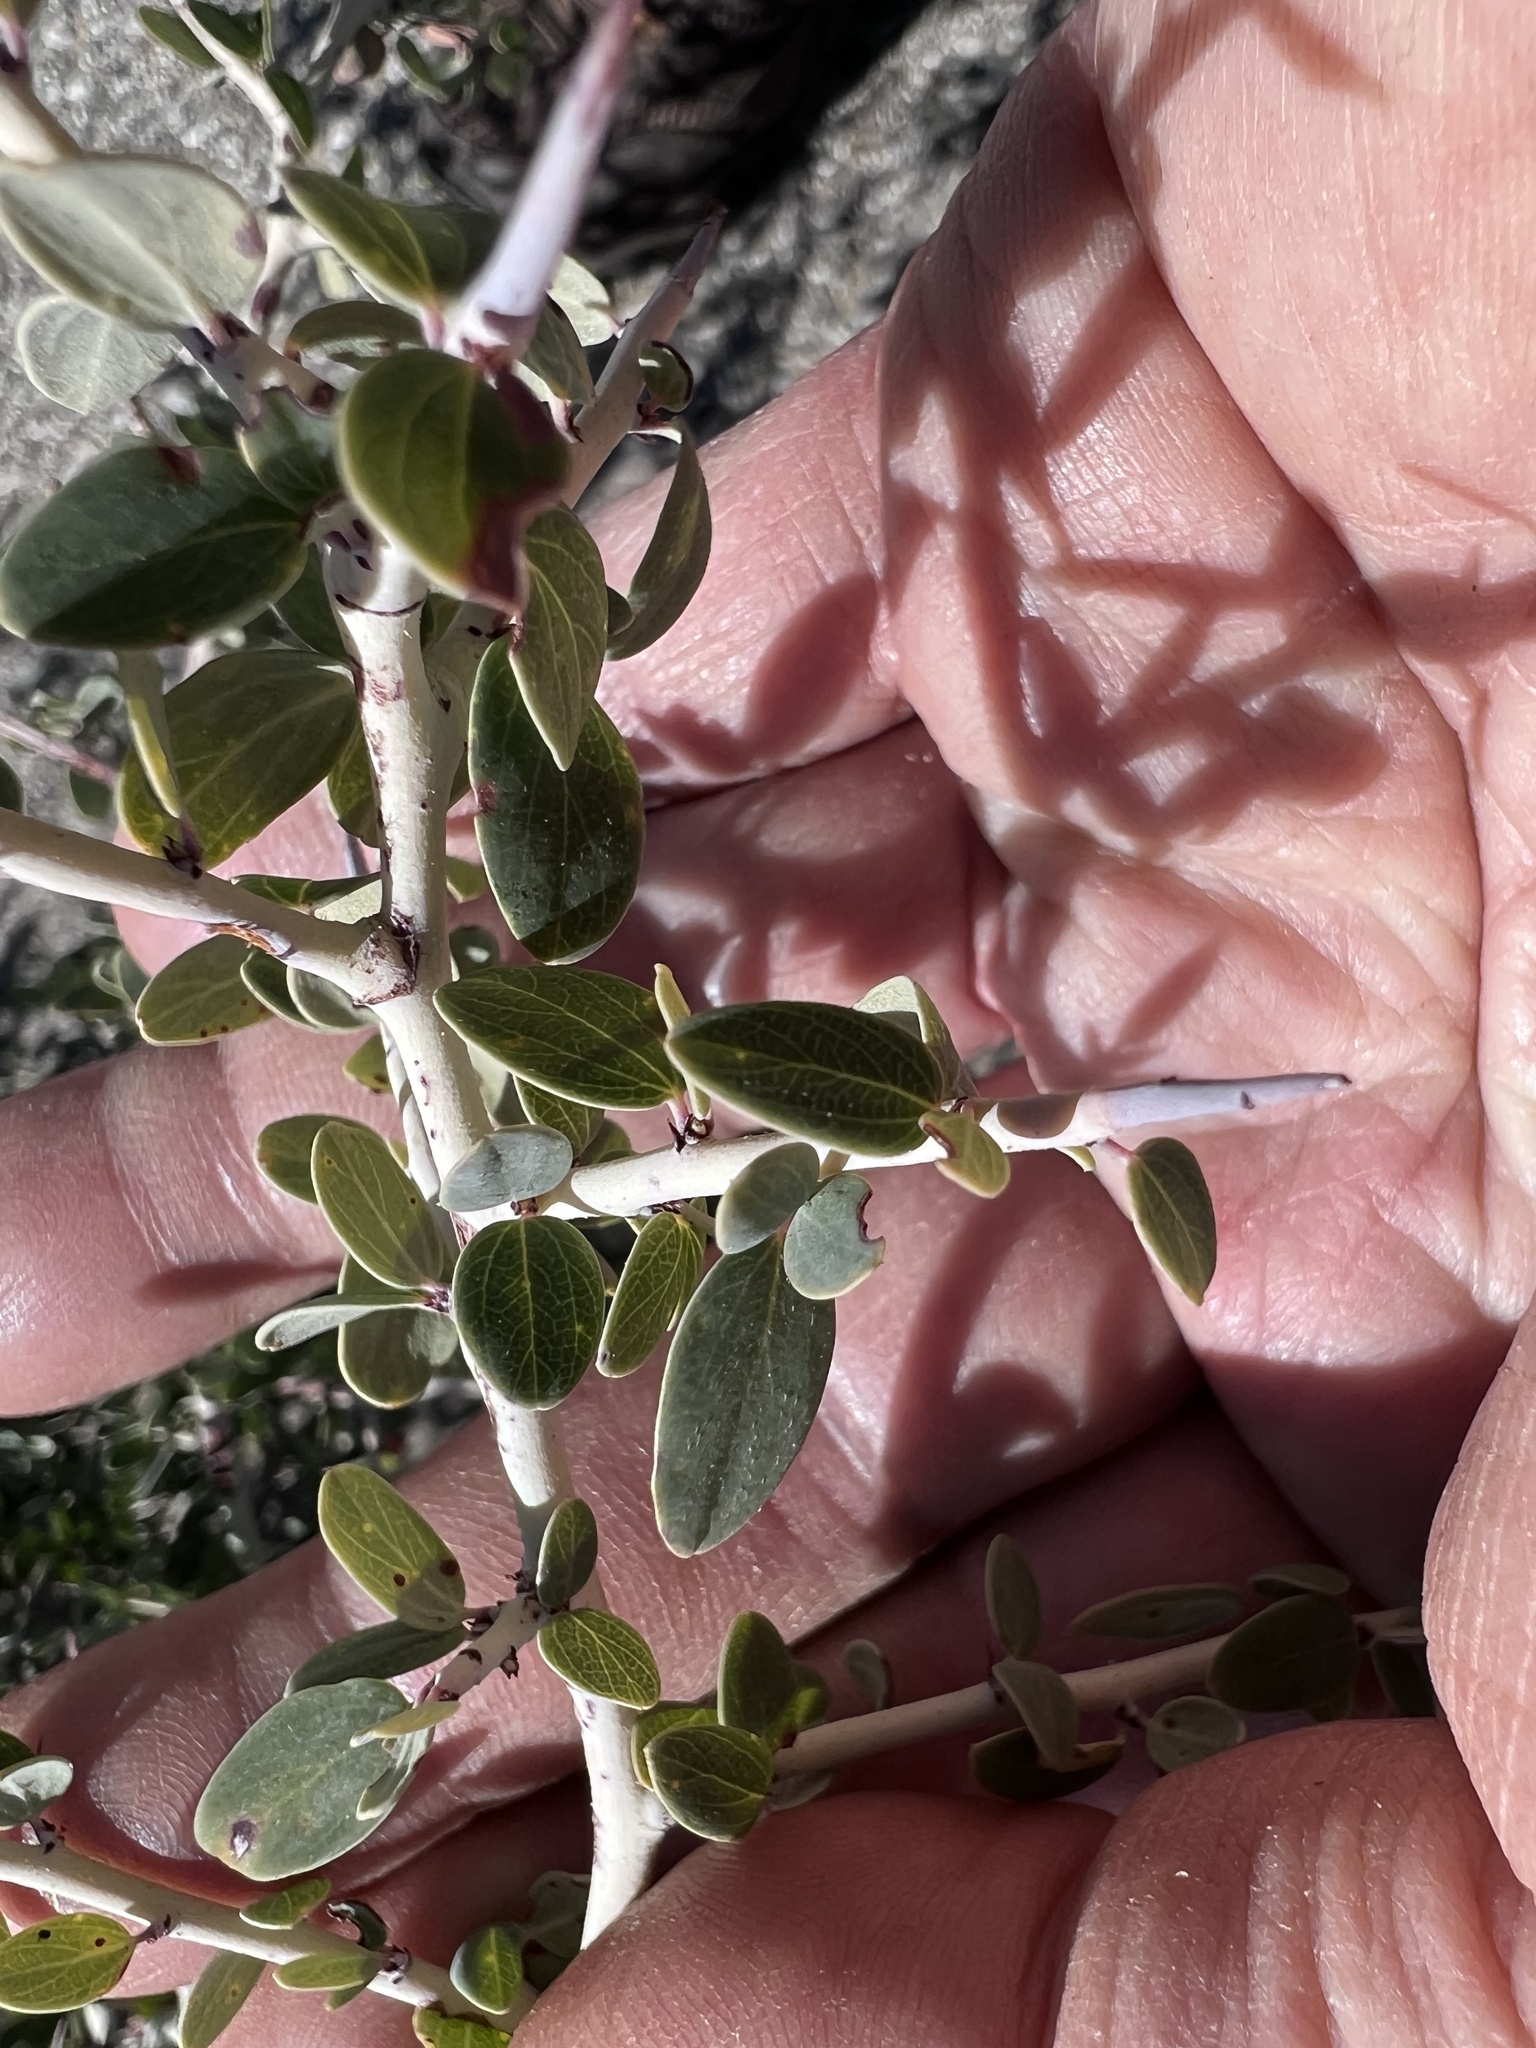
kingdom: Plantae
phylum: Tracheophyta
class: Magnoliopsida
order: Rosales
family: Rhamnaceae
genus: Ceanothus
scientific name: Ceanothus leucodermis
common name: Chaparral whitethorn
